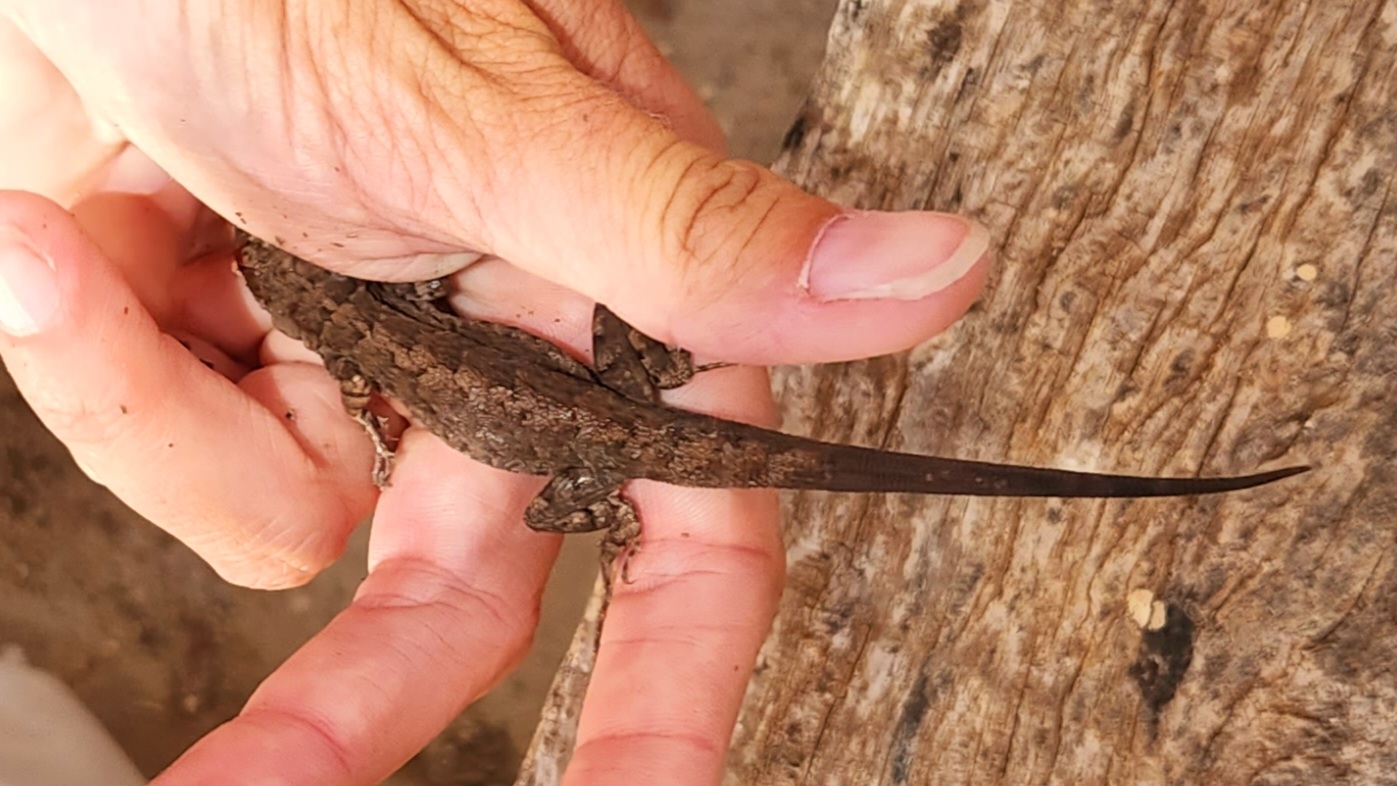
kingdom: Animalia
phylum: Chordata
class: Squamata
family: Phrynosomatidae
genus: Urosaurus
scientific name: Urosaurus auriculatus
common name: Socorro island tree lizard
